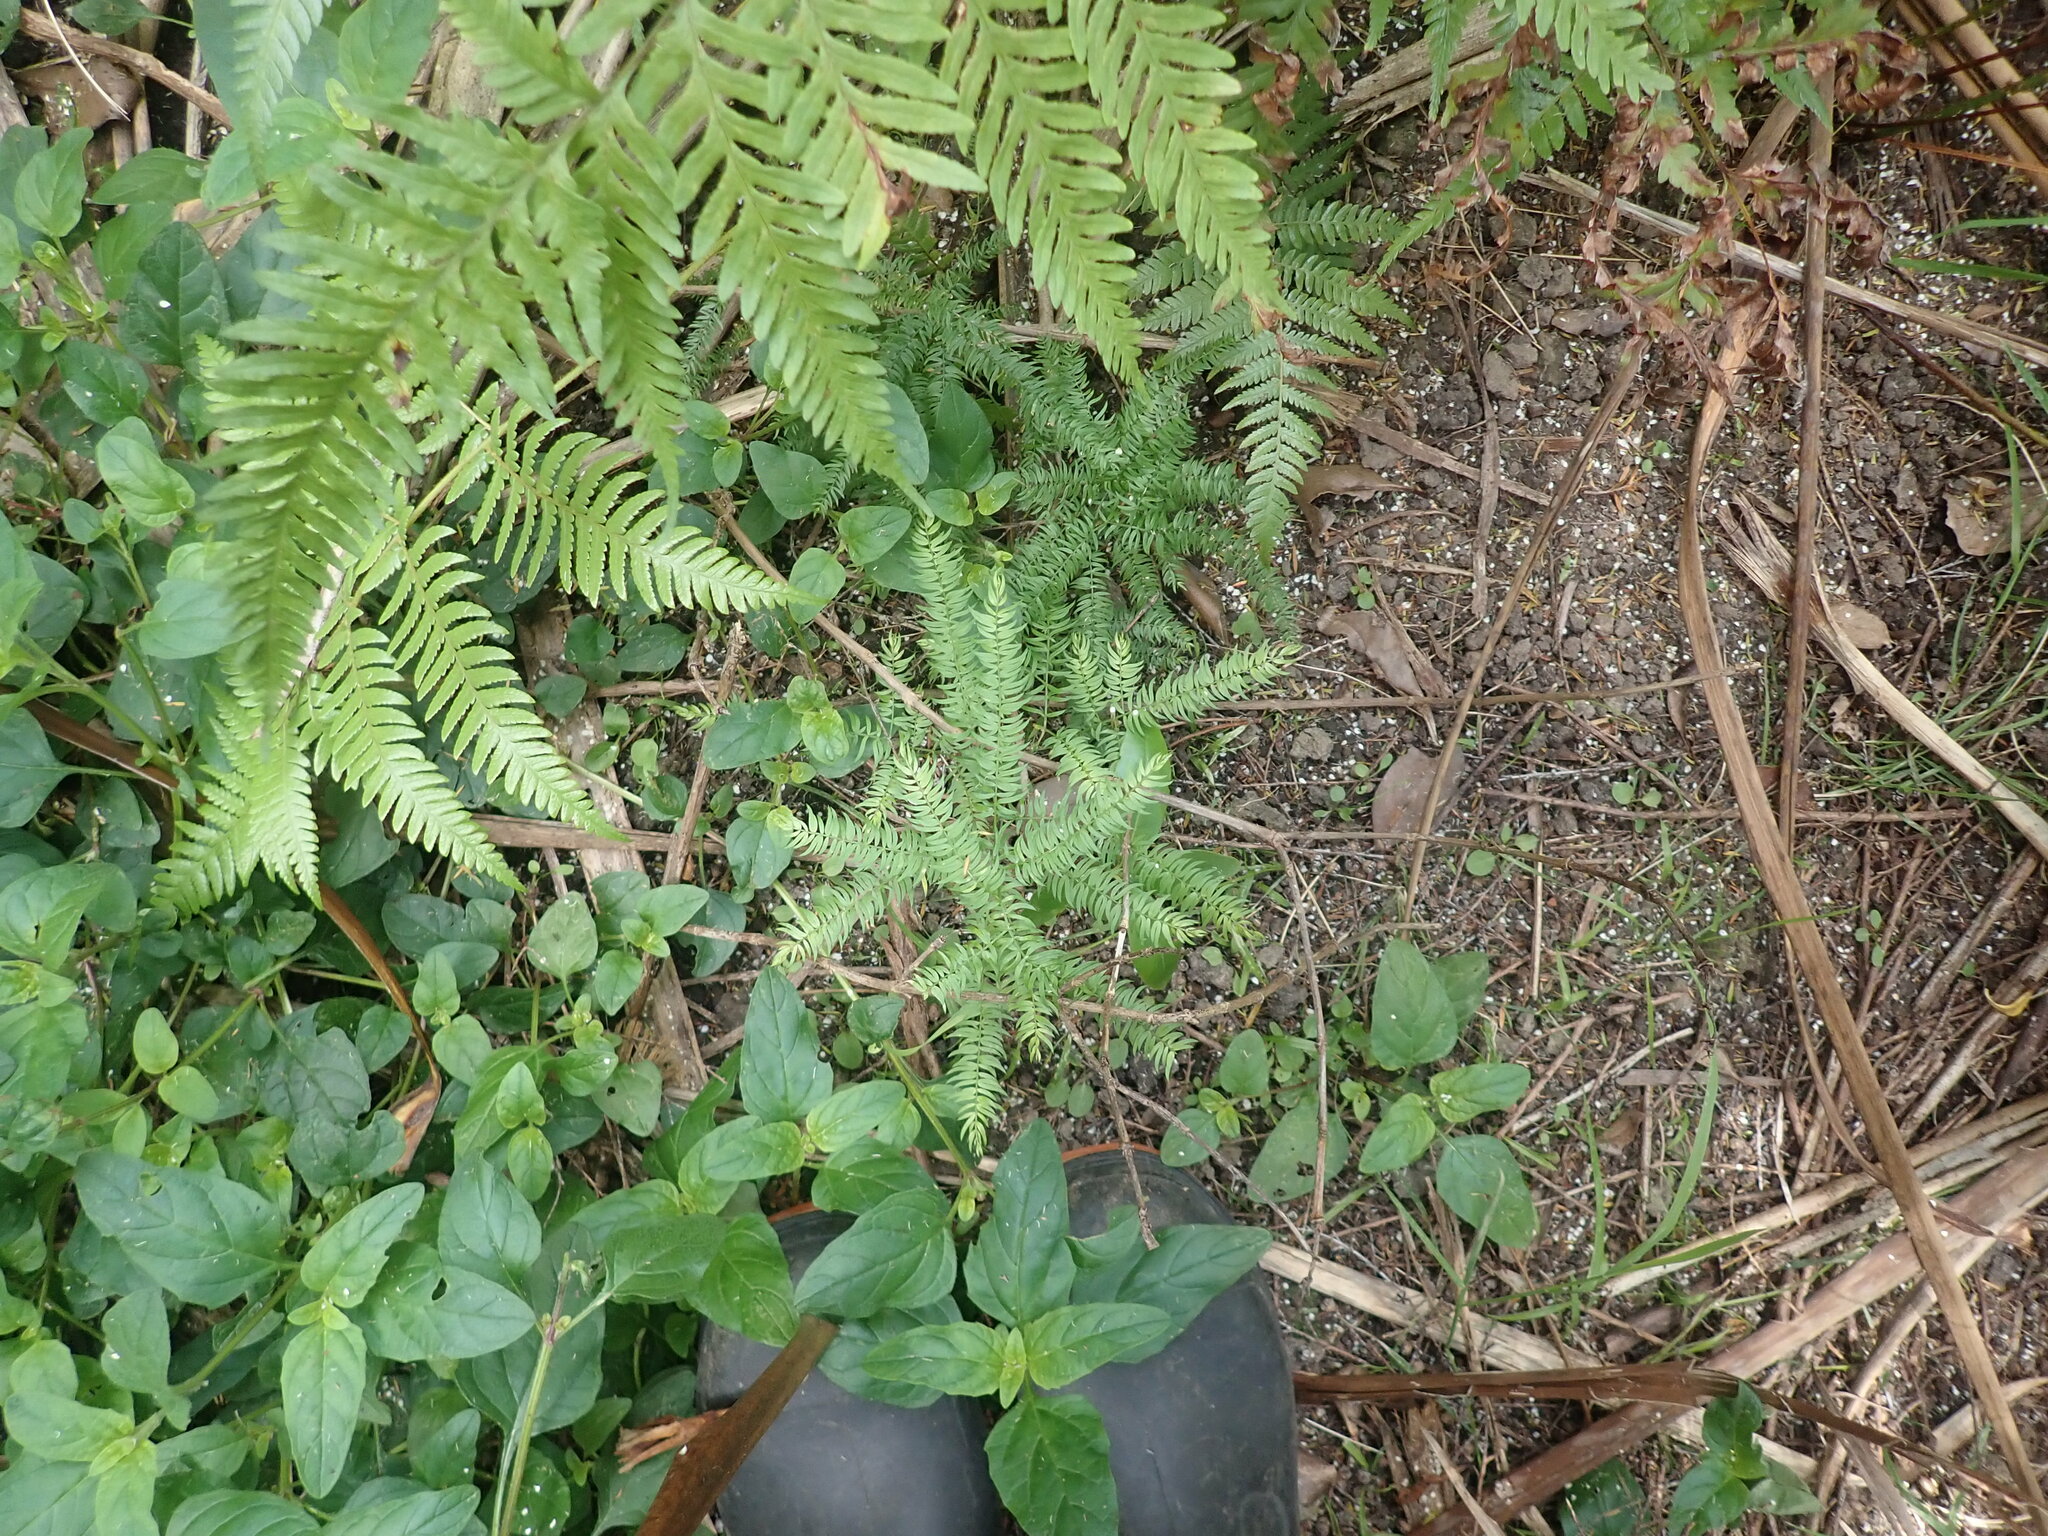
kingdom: Plantae
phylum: Tracheophyta
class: Liliopsida
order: Asparagales
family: Asparagaceae
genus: Asparagus
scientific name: Asparagus scandens
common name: Asparagus-fern
